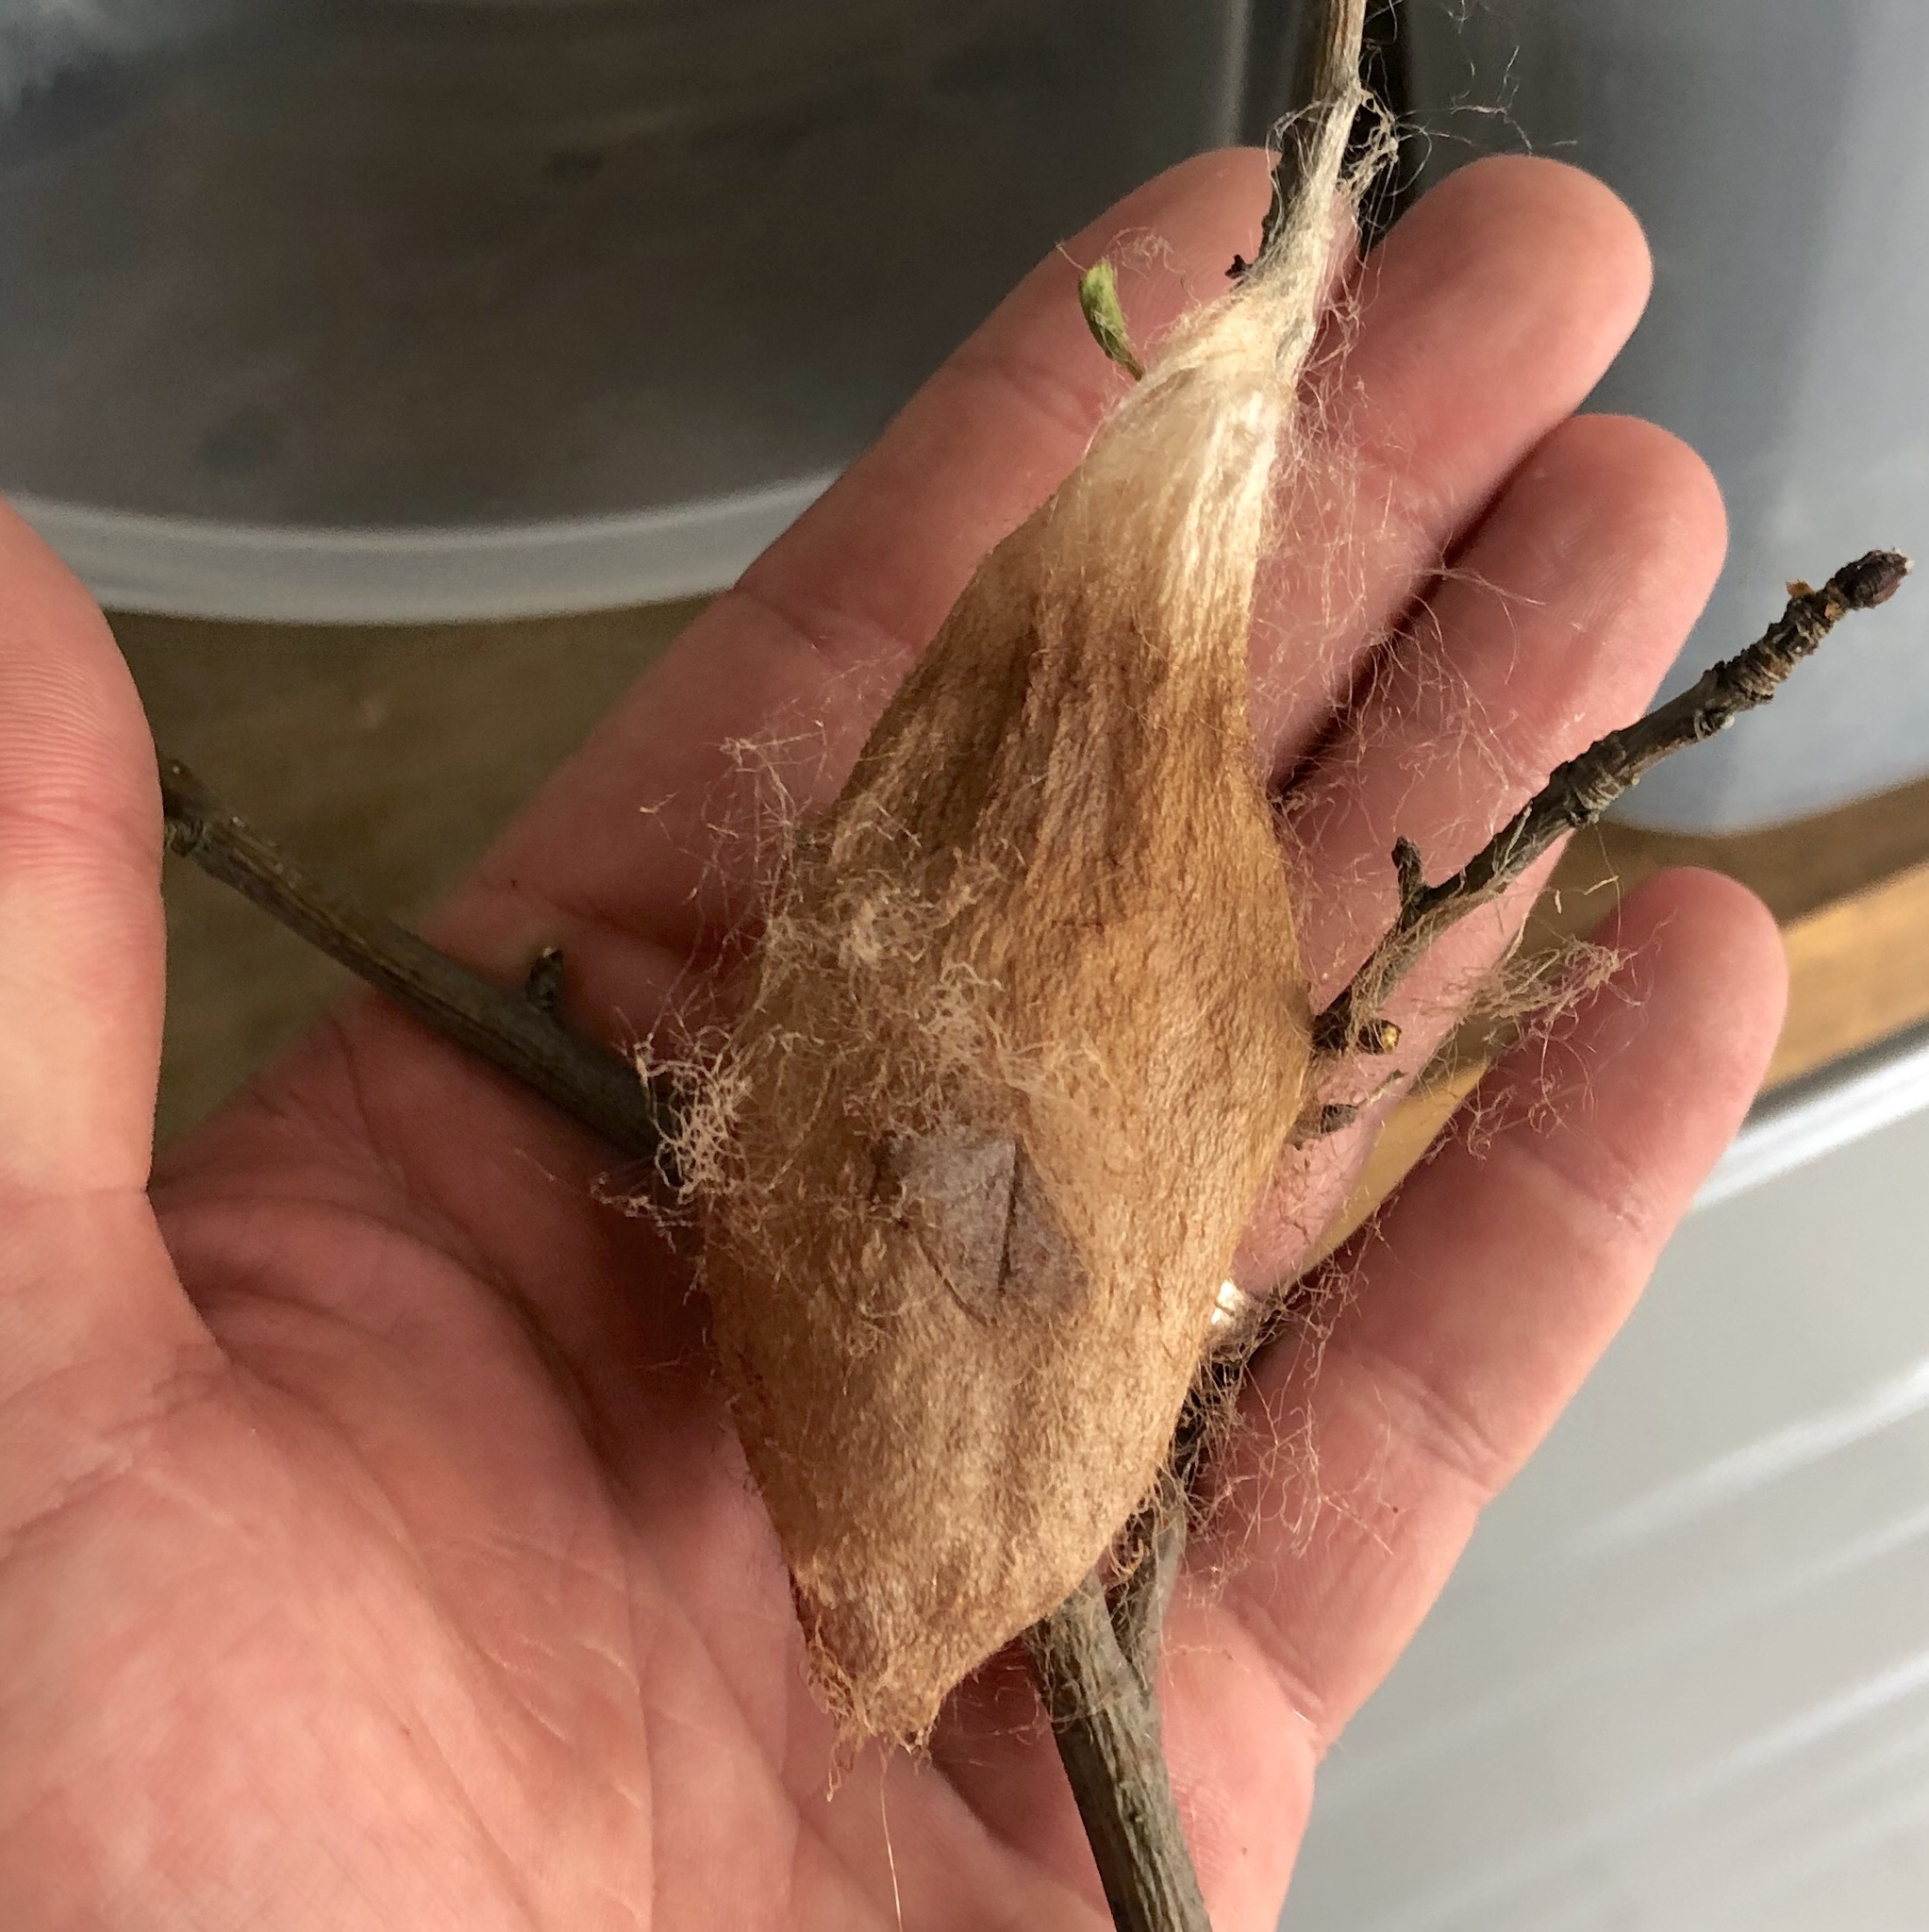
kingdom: Animalia
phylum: Arthropoda
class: Insecta
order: Lepidoptera
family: Saturniidae
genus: Hyalophora
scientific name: Hyalophora cecropia
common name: Cecropia silkmoth
